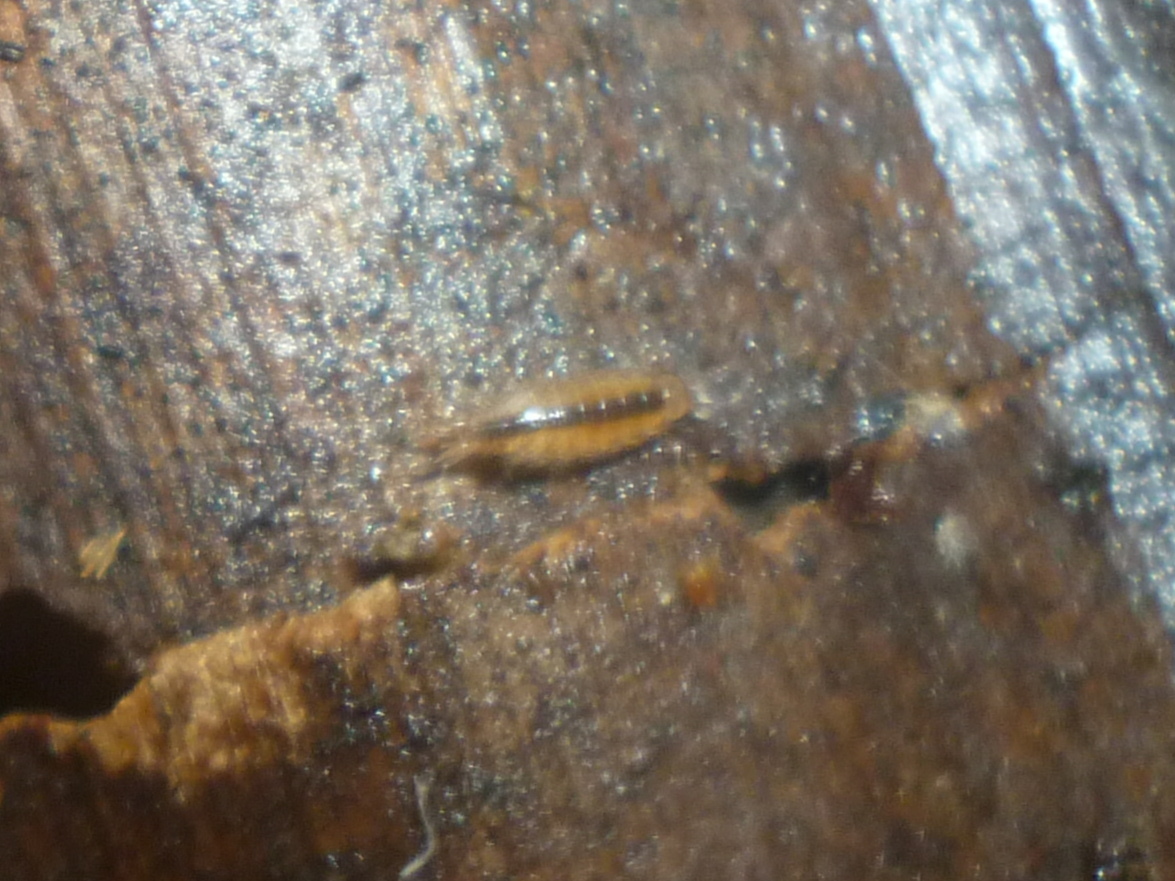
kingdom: Animalia
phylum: Arthropoda
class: Malacostraca
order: Isopoda
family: Philosciidae
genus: Atlantoscia
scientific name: Atlantoscia floridana
